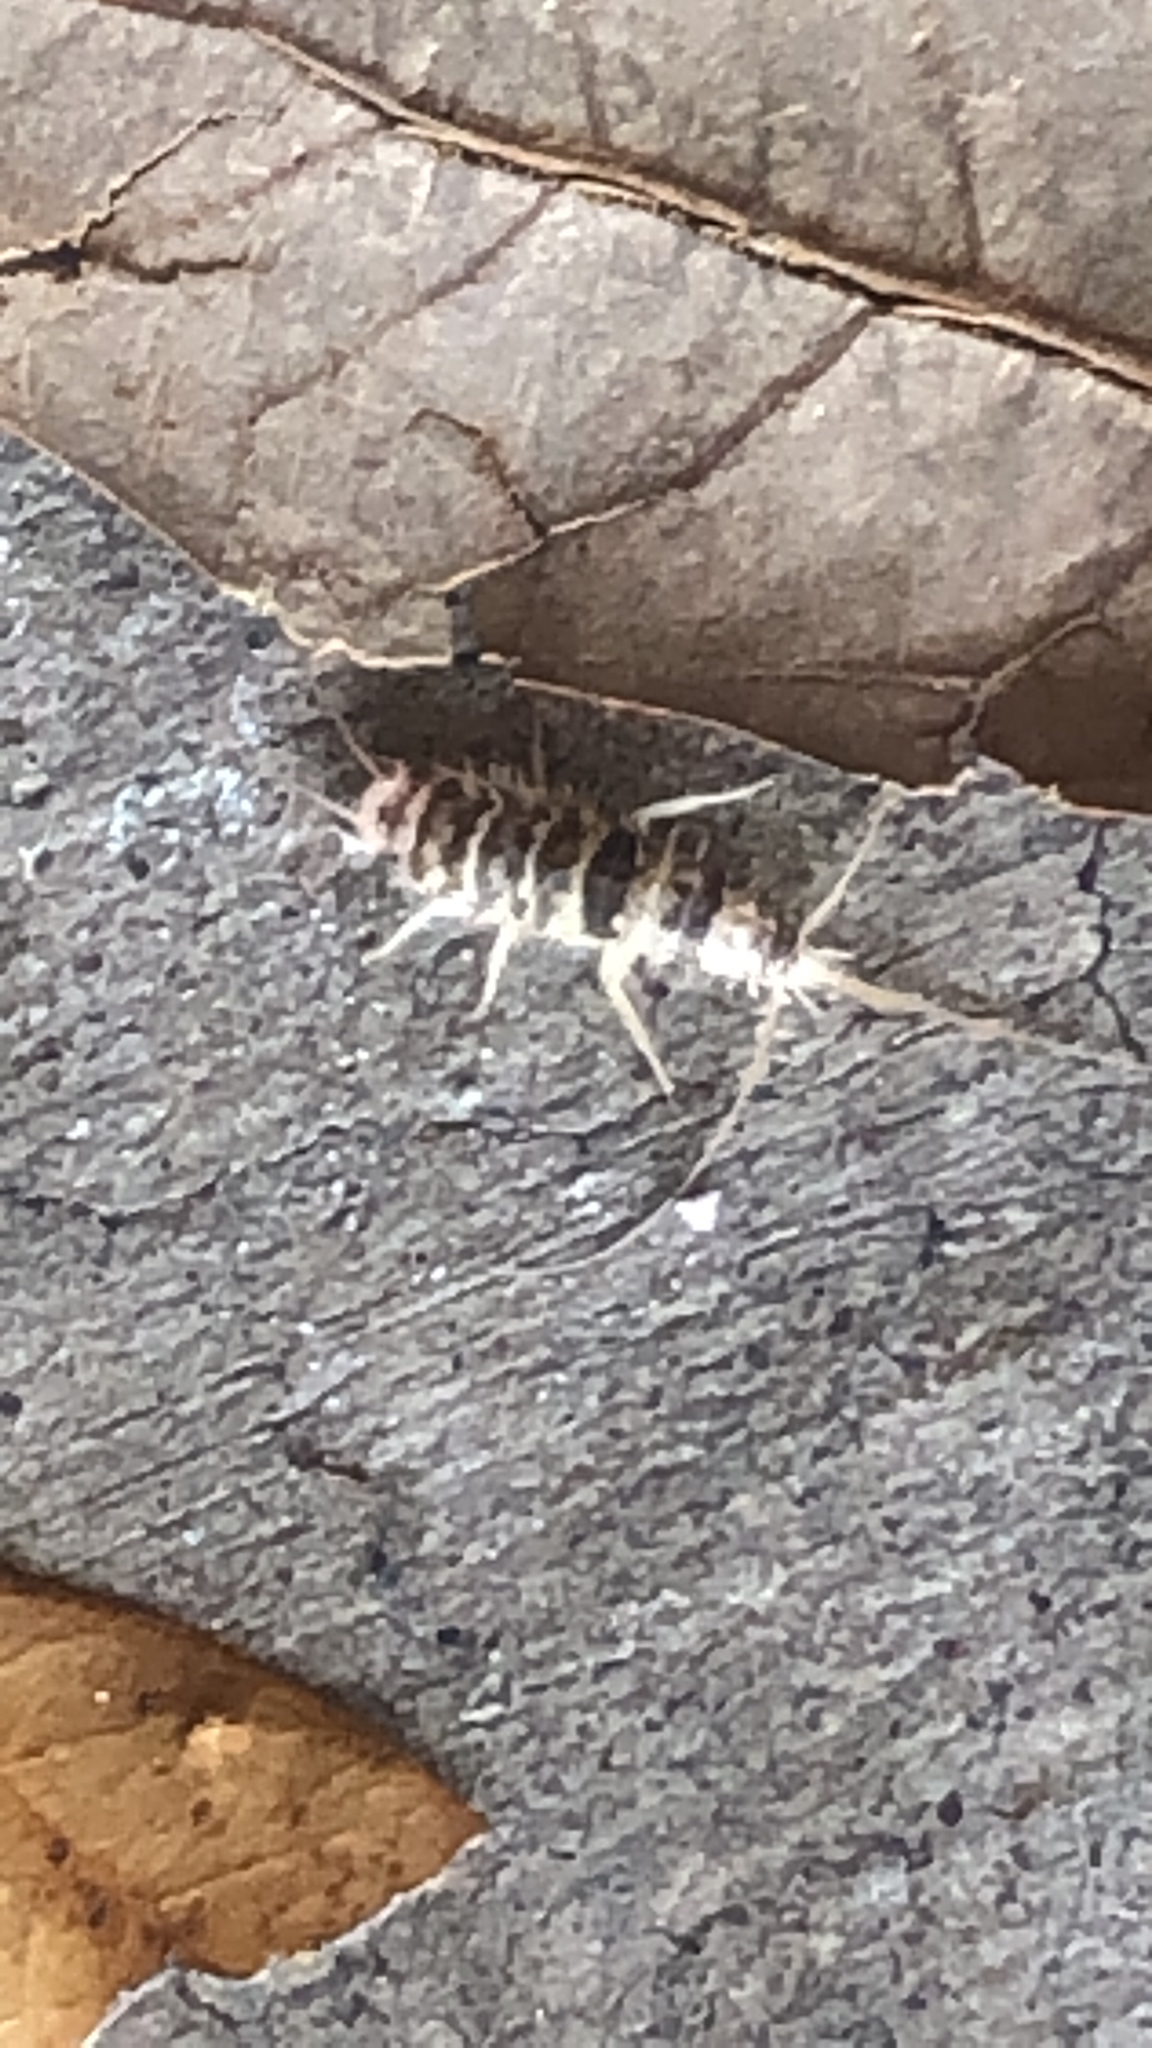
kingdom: Animalia
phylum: Arthropoda
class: Insecta
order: Zygentoma
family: Lepismatidae
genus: Thermobia
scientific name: Thermobia domestica
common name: Firebrat
